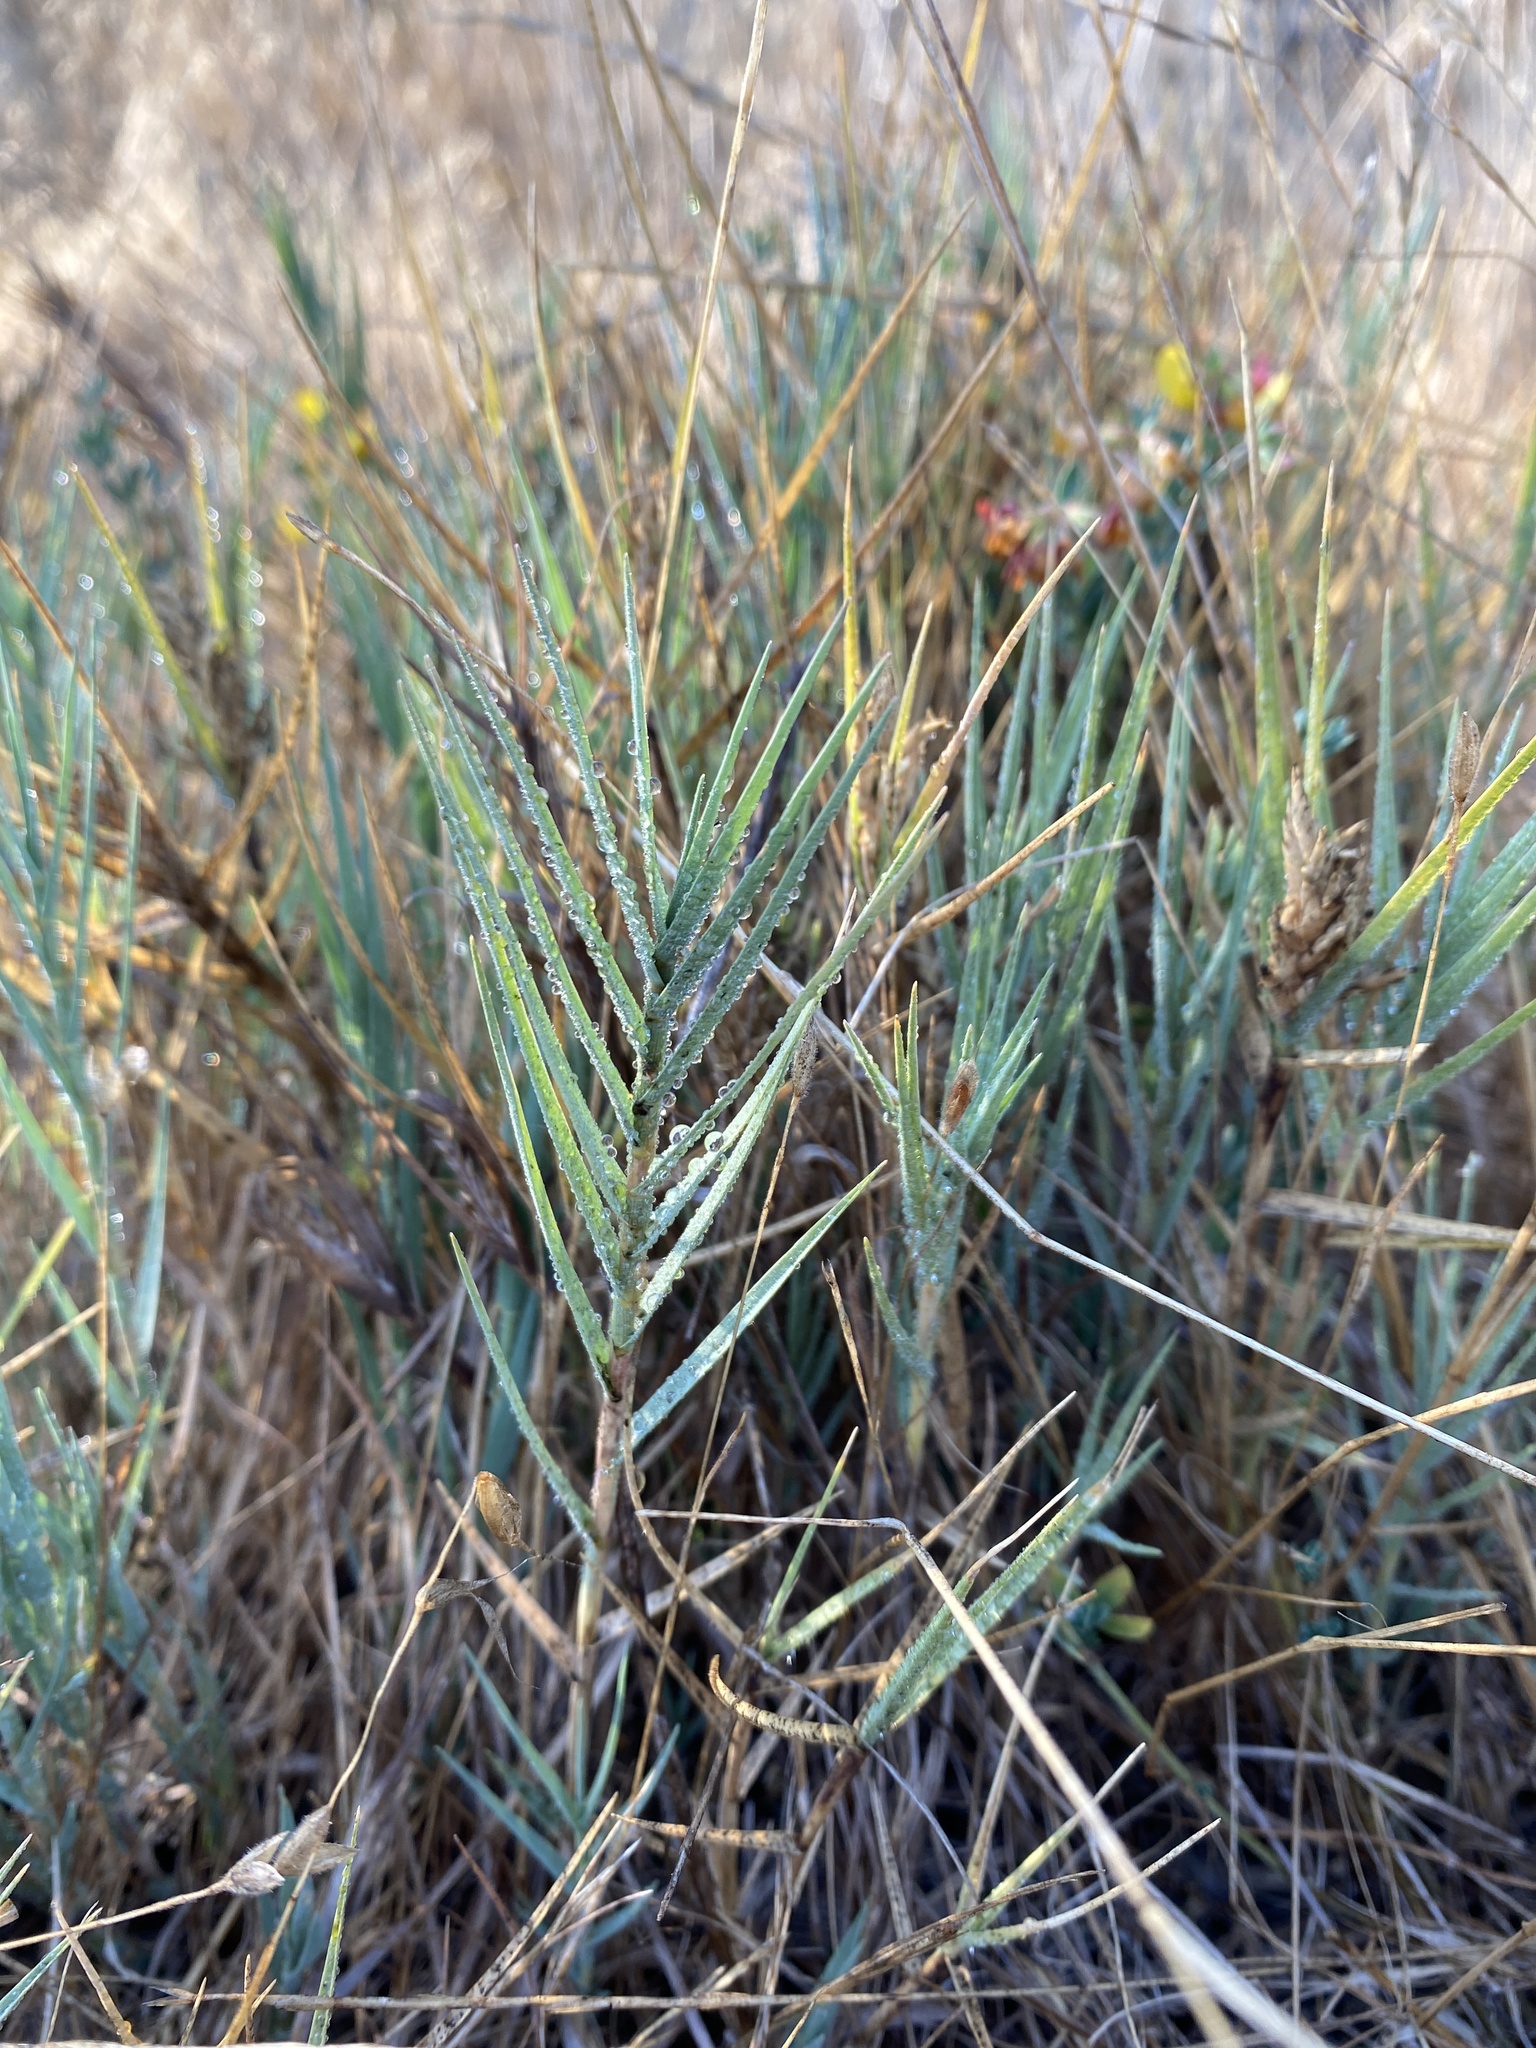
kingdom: Plantae
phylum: Tracheophyta
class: Liliopsida
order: Poales
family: Poaceae
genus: Distichlis
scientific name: Distichlis spicata
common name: Saltgrass
